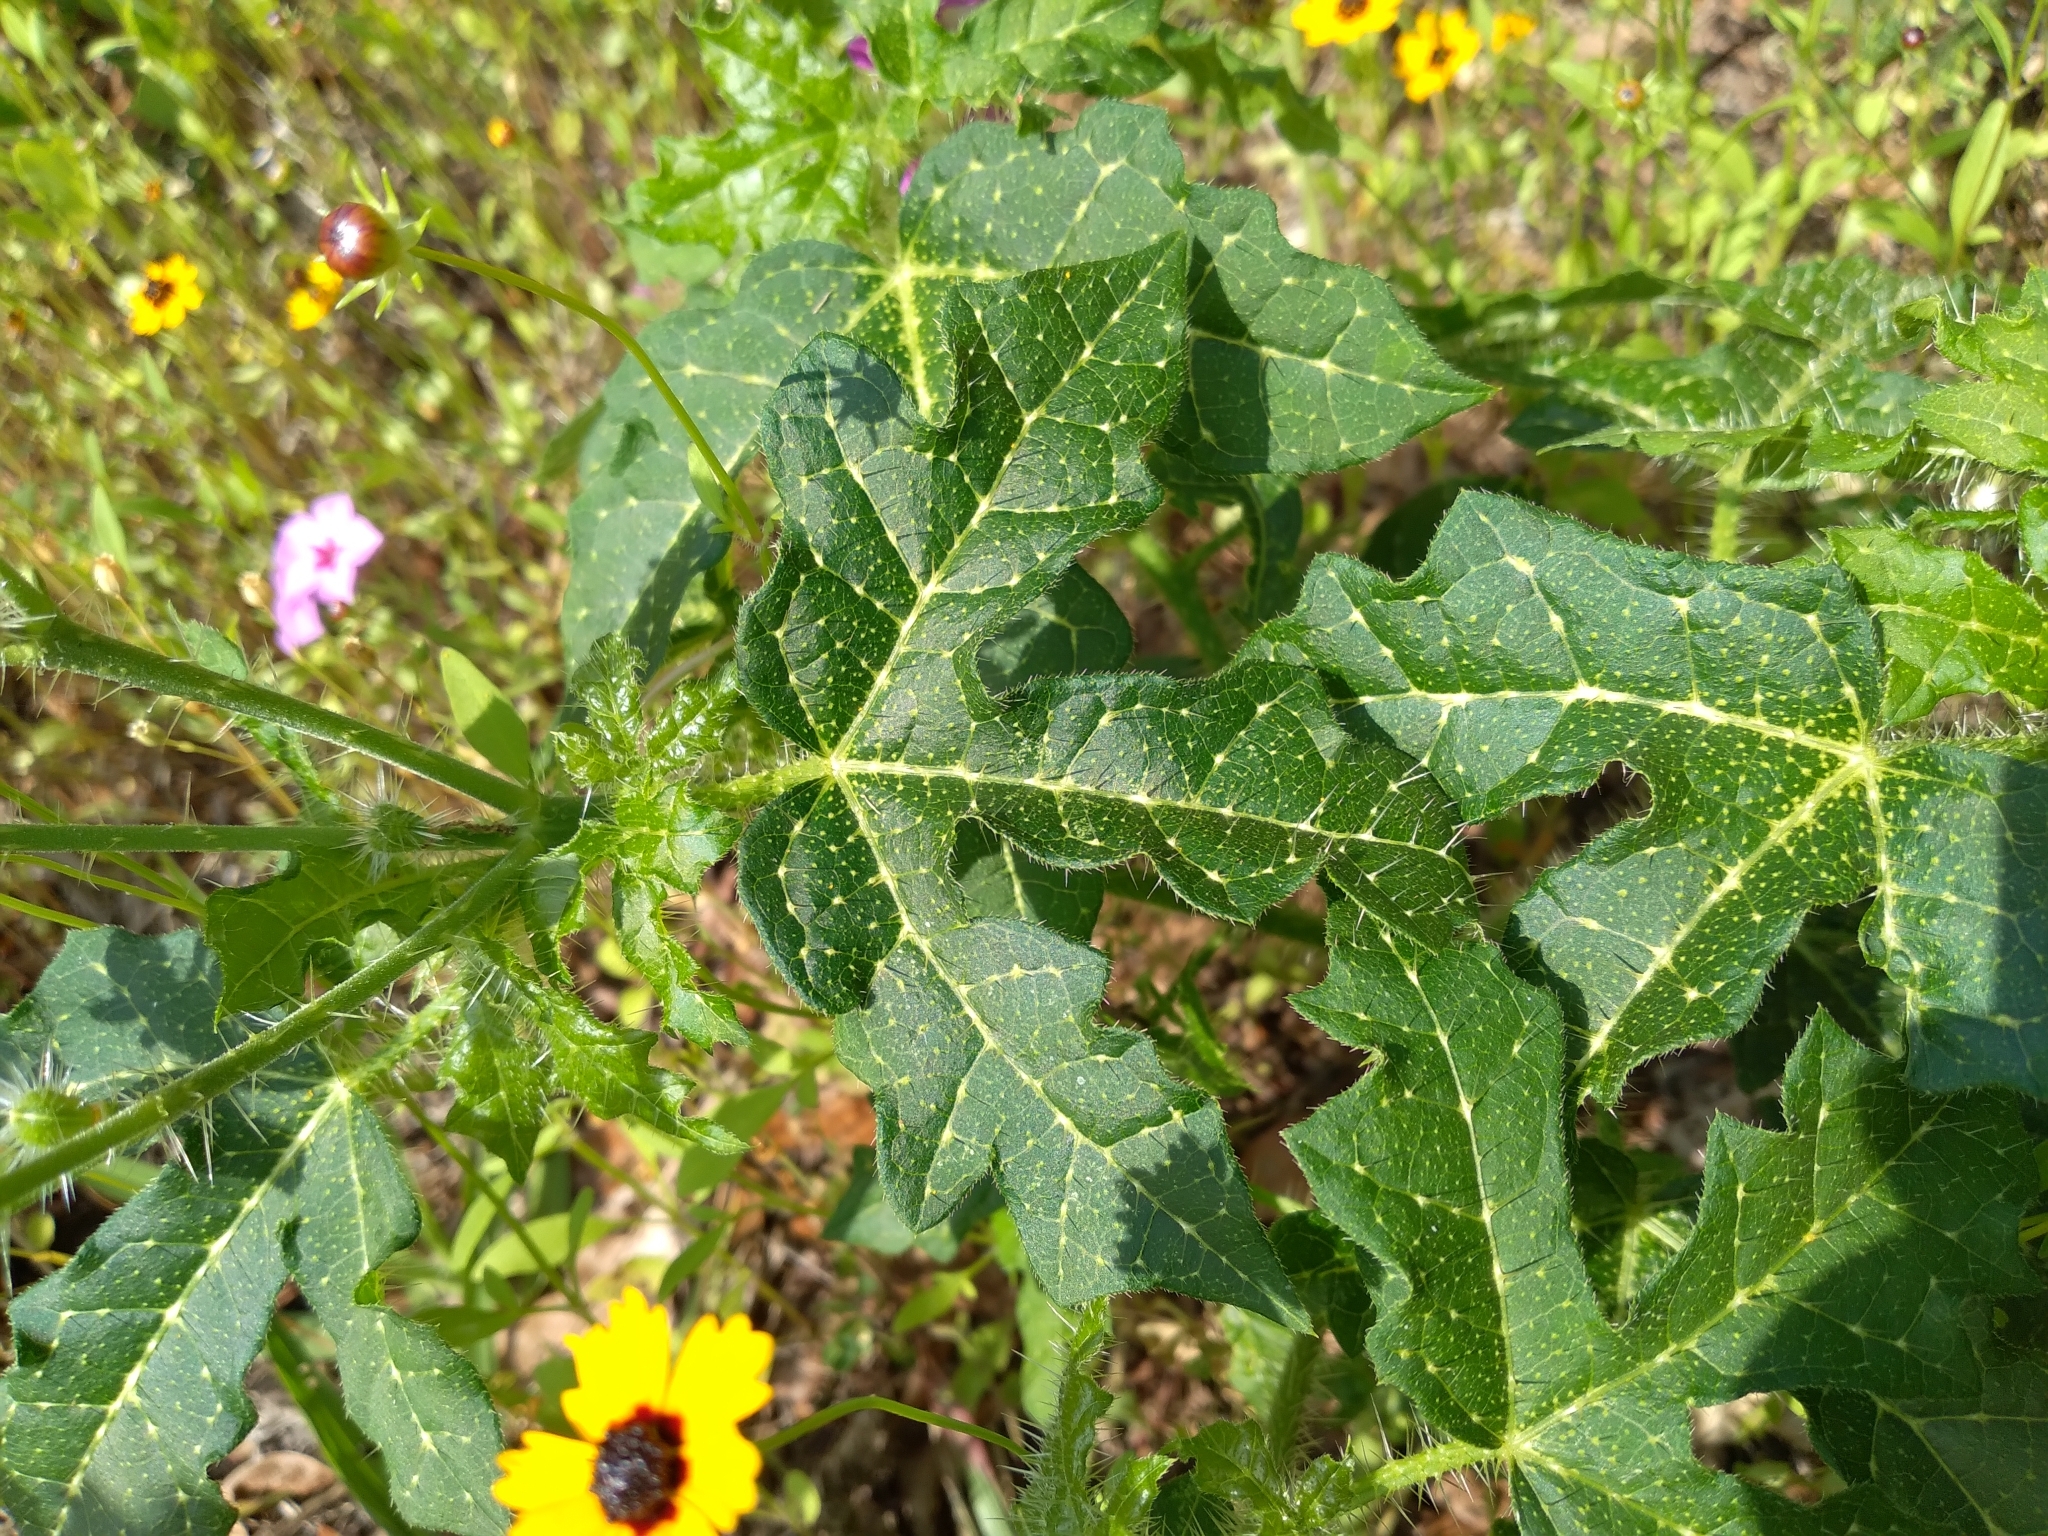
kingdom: Plantae
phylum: Tracheophyta
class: Magnoliopsida
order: Malpighiales
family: Euphorbiaceae
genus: Cnidoscolus
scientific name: Cnidoscolus stimulosus
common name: Bull-nettle
